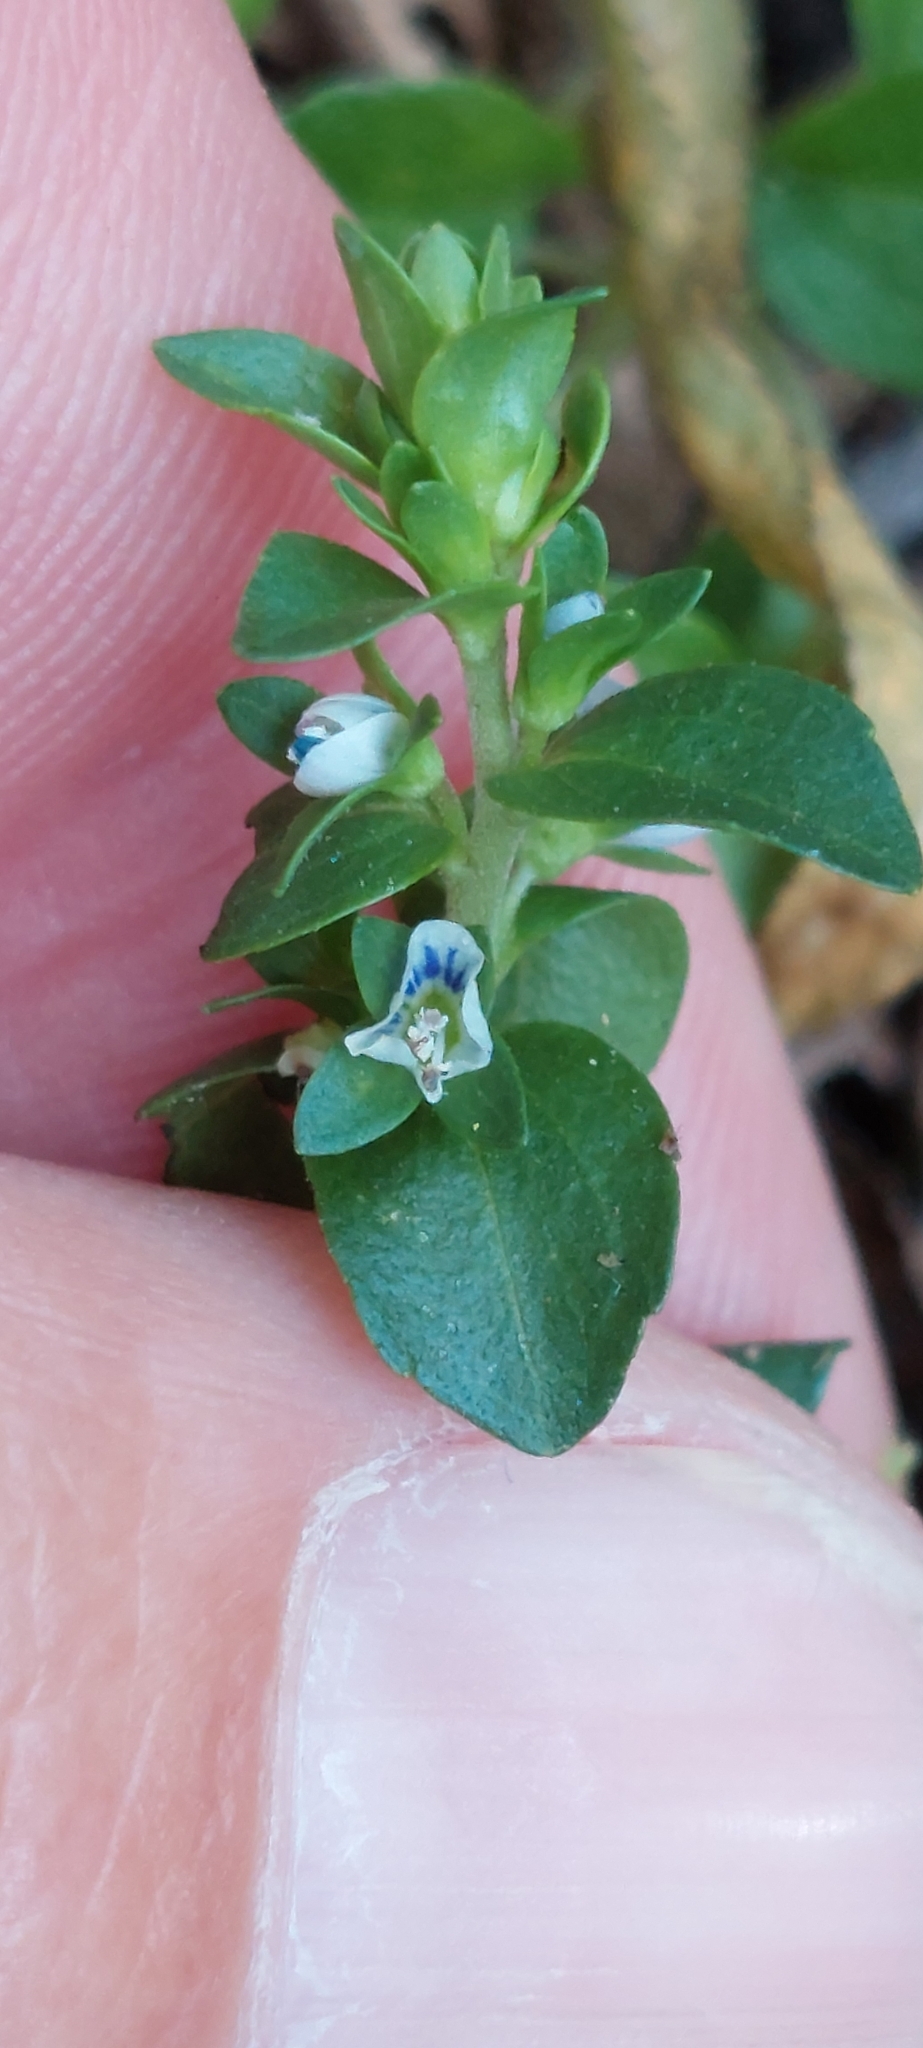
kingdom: Plantae
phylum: Tracheophyta
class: Magnoliopsida
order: Lamiales
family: Plantaginaceae
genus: Veronica
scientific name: Veronica serpyllifolia
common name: Thyme-leaved speedwell
